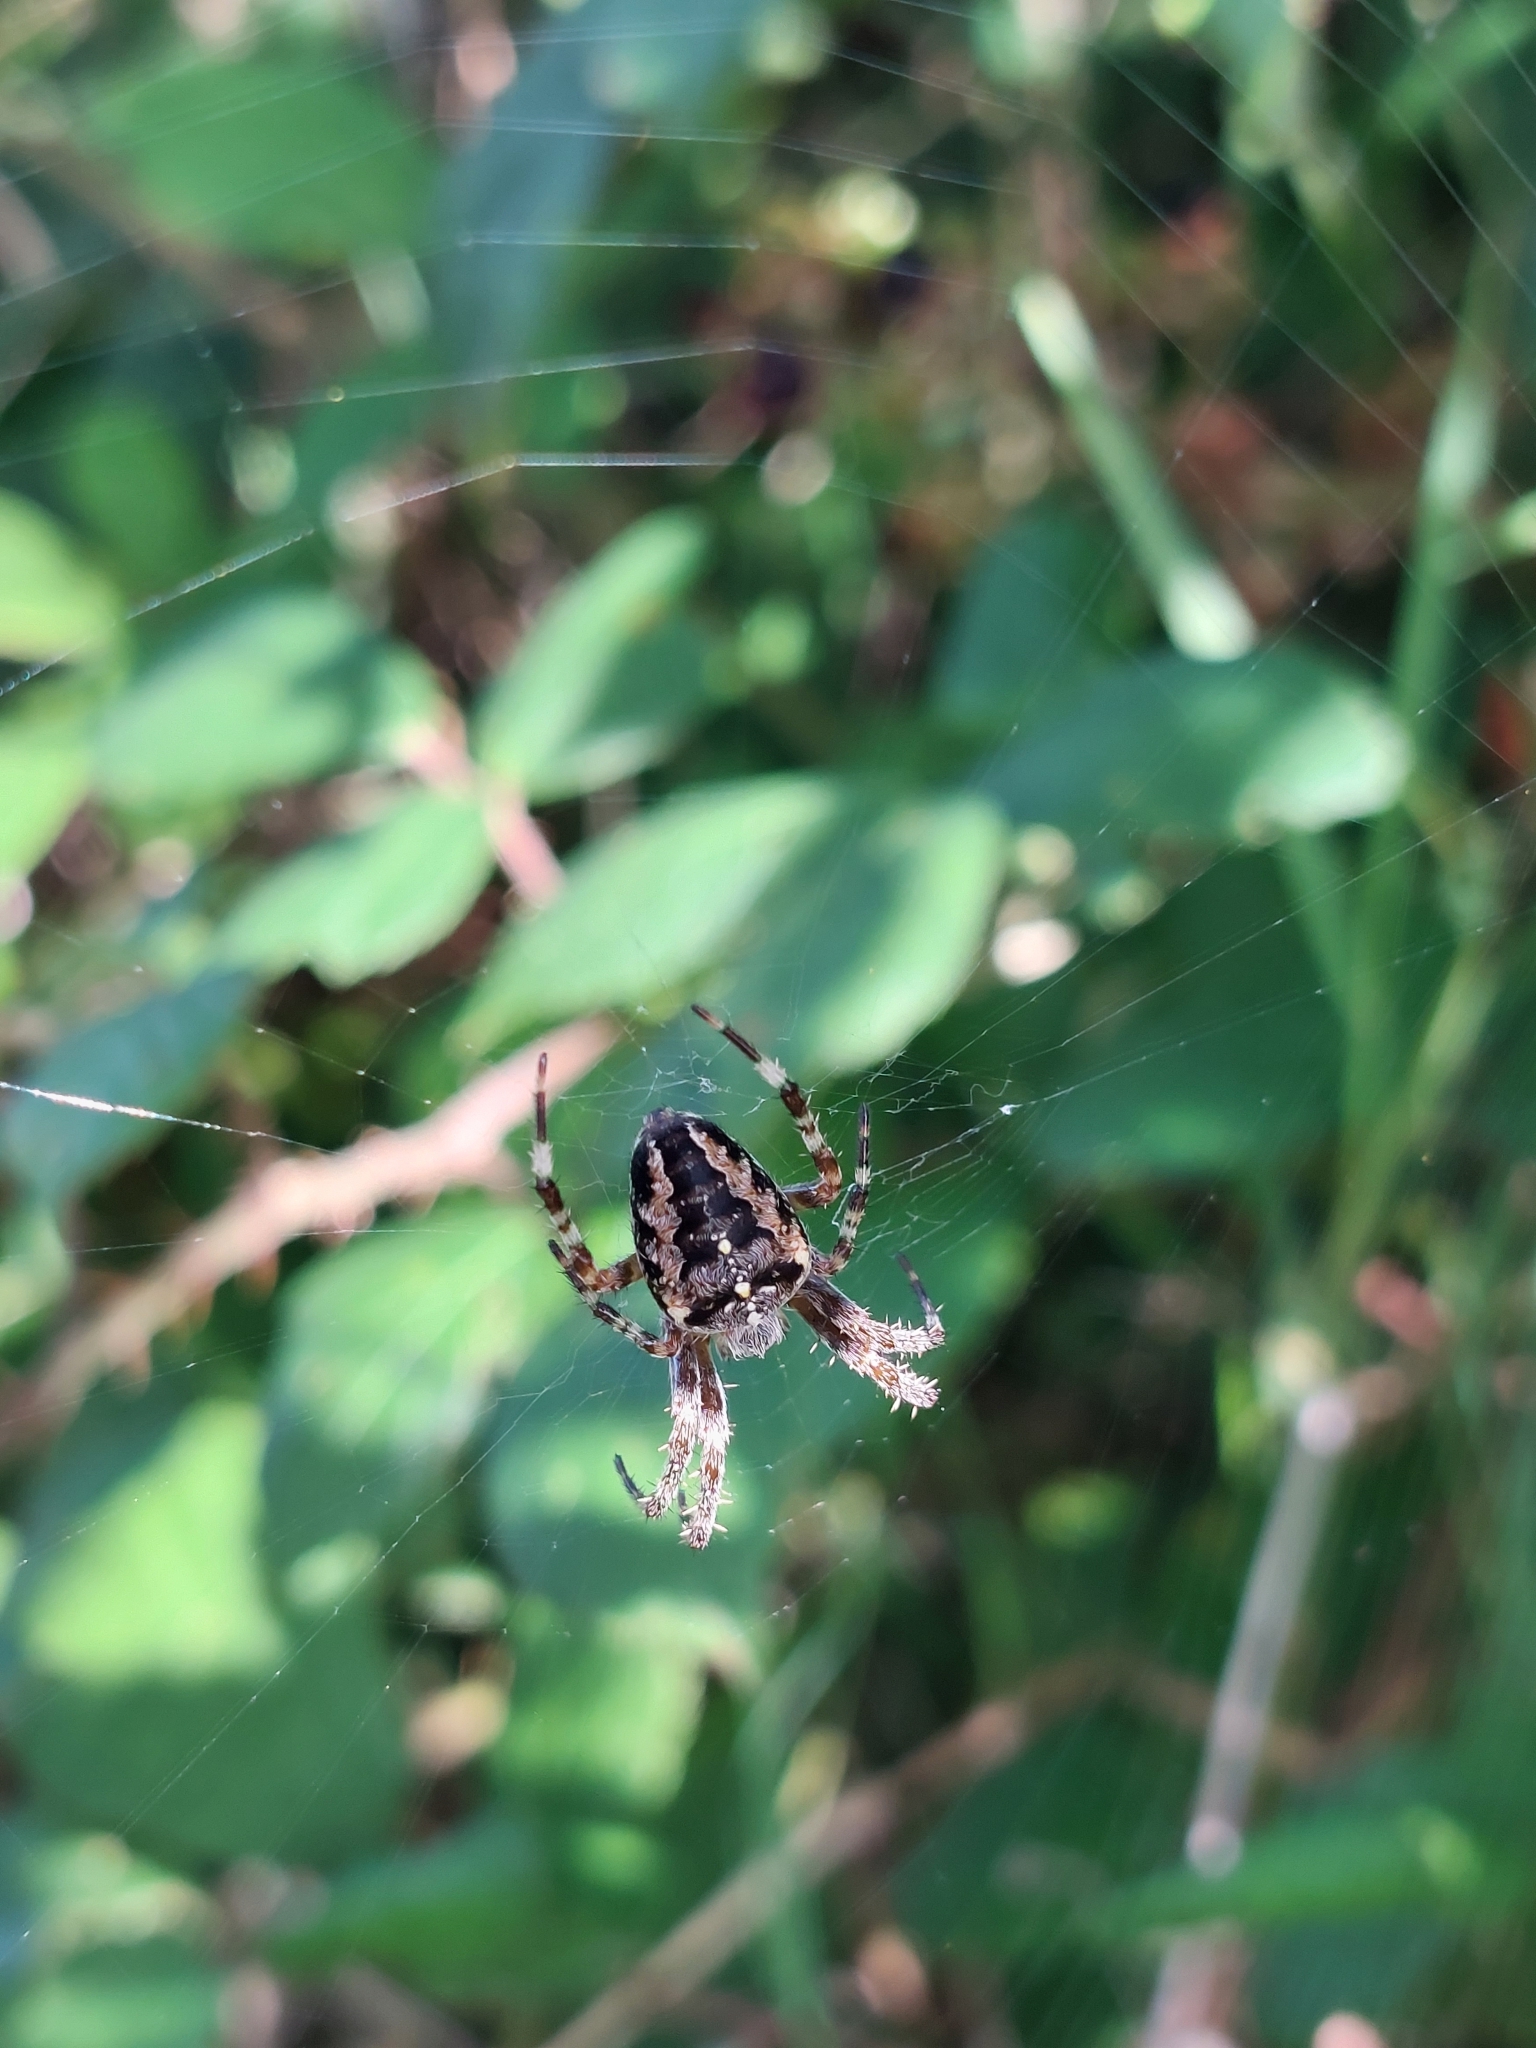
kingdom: Animalia
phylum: Arthropoda
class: Arachnida
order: Araneae
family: Araneidae
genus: Araneus
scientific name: Araneus diadematus
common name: Cross orbweaver
